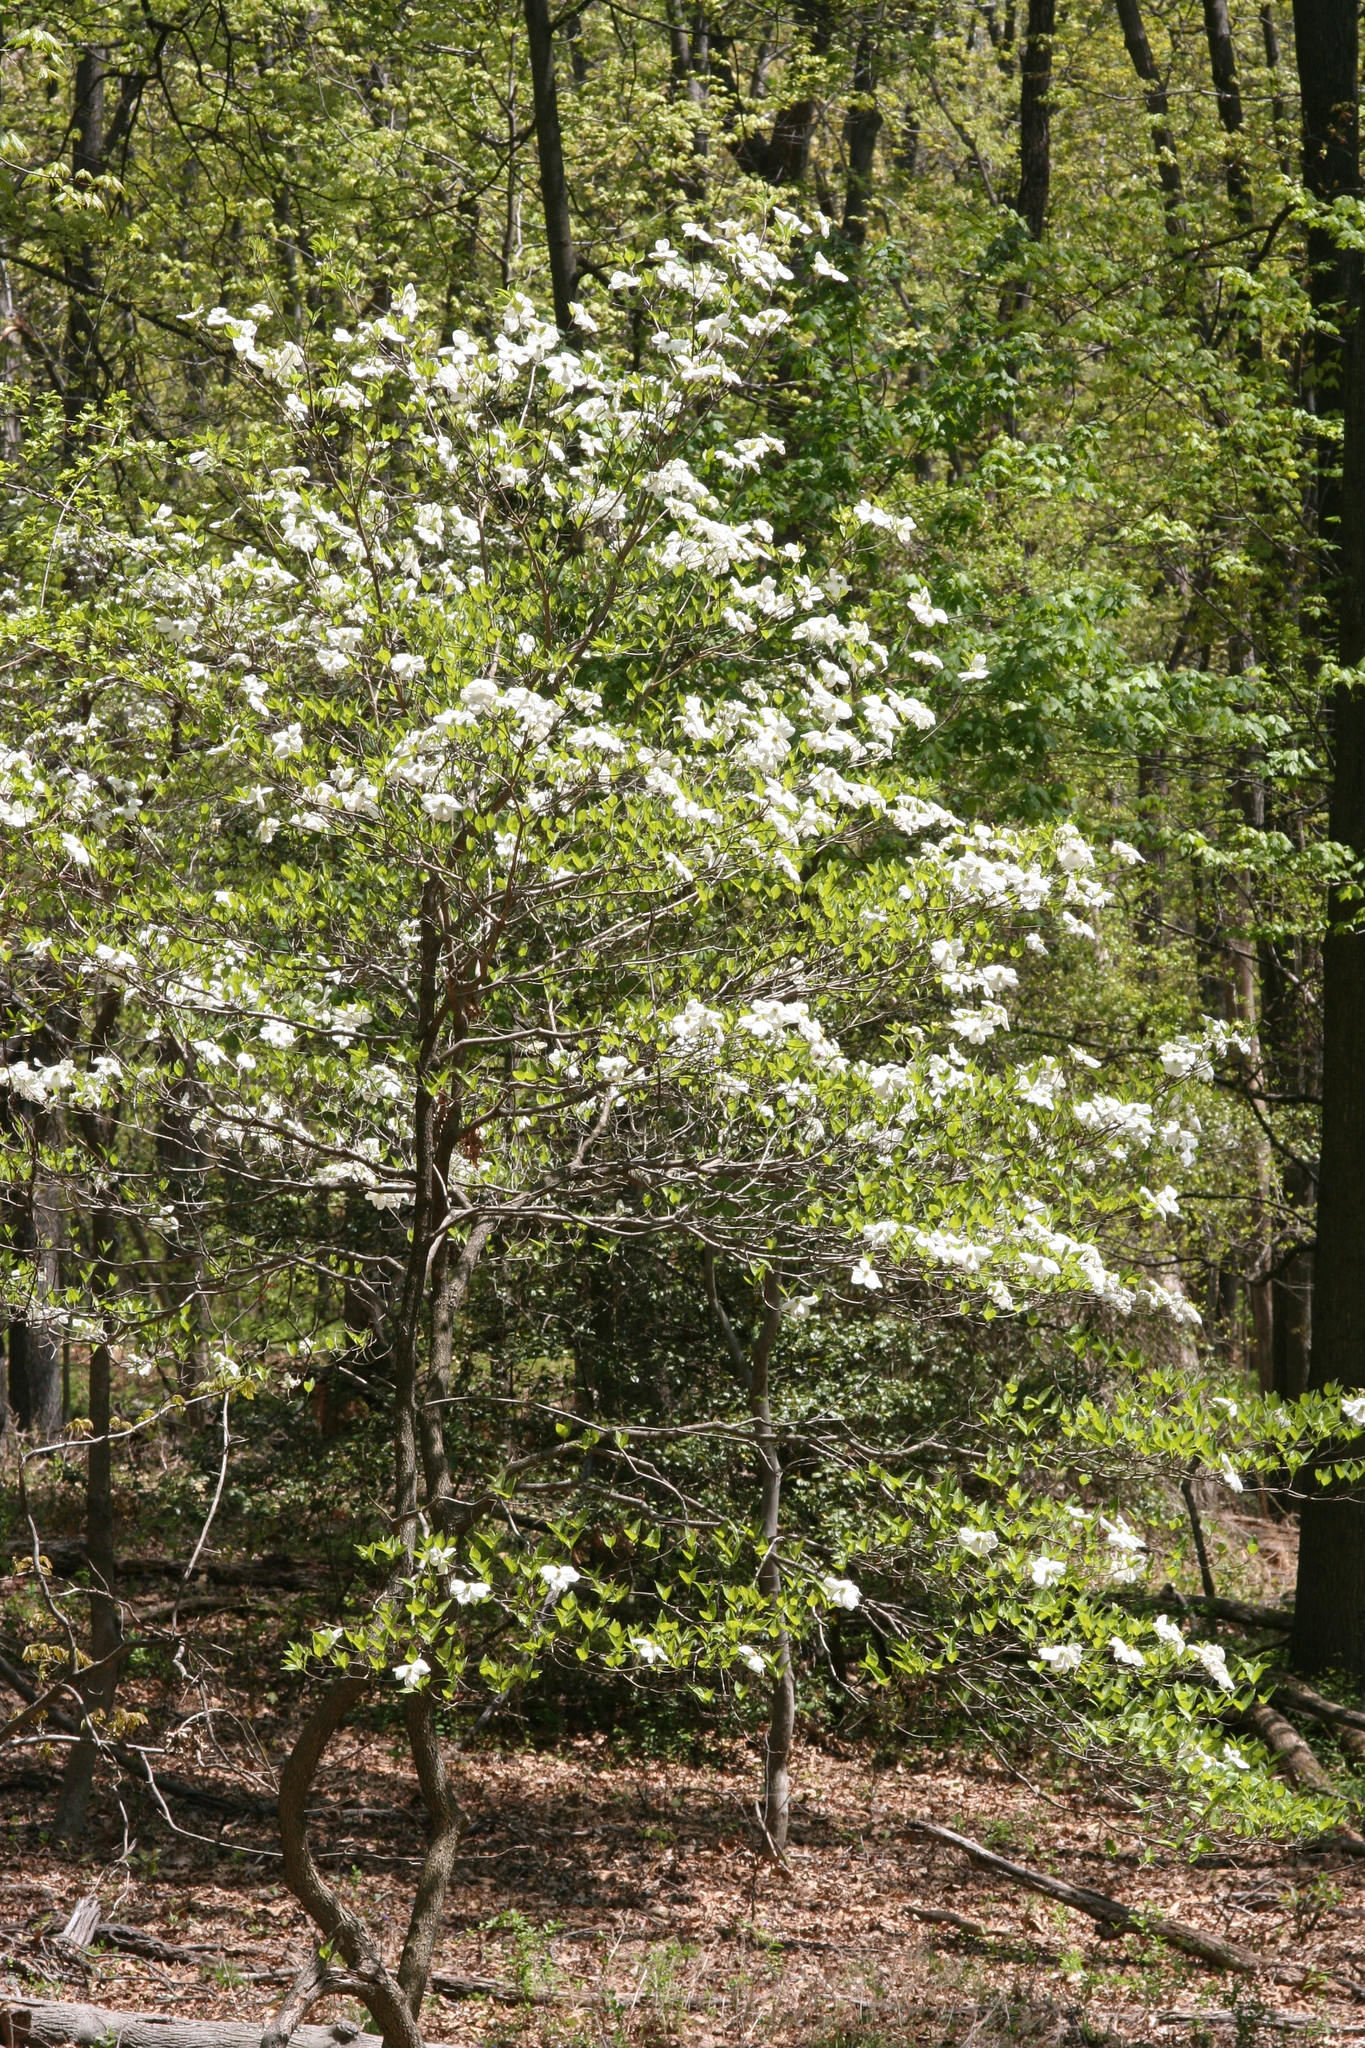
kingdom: Plantae
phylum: Tracheophyta
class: Magnoliopsida
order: Cornales
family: Cornaceae
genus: Cornus
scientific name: Cornus florida
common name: Flowering dogwood
